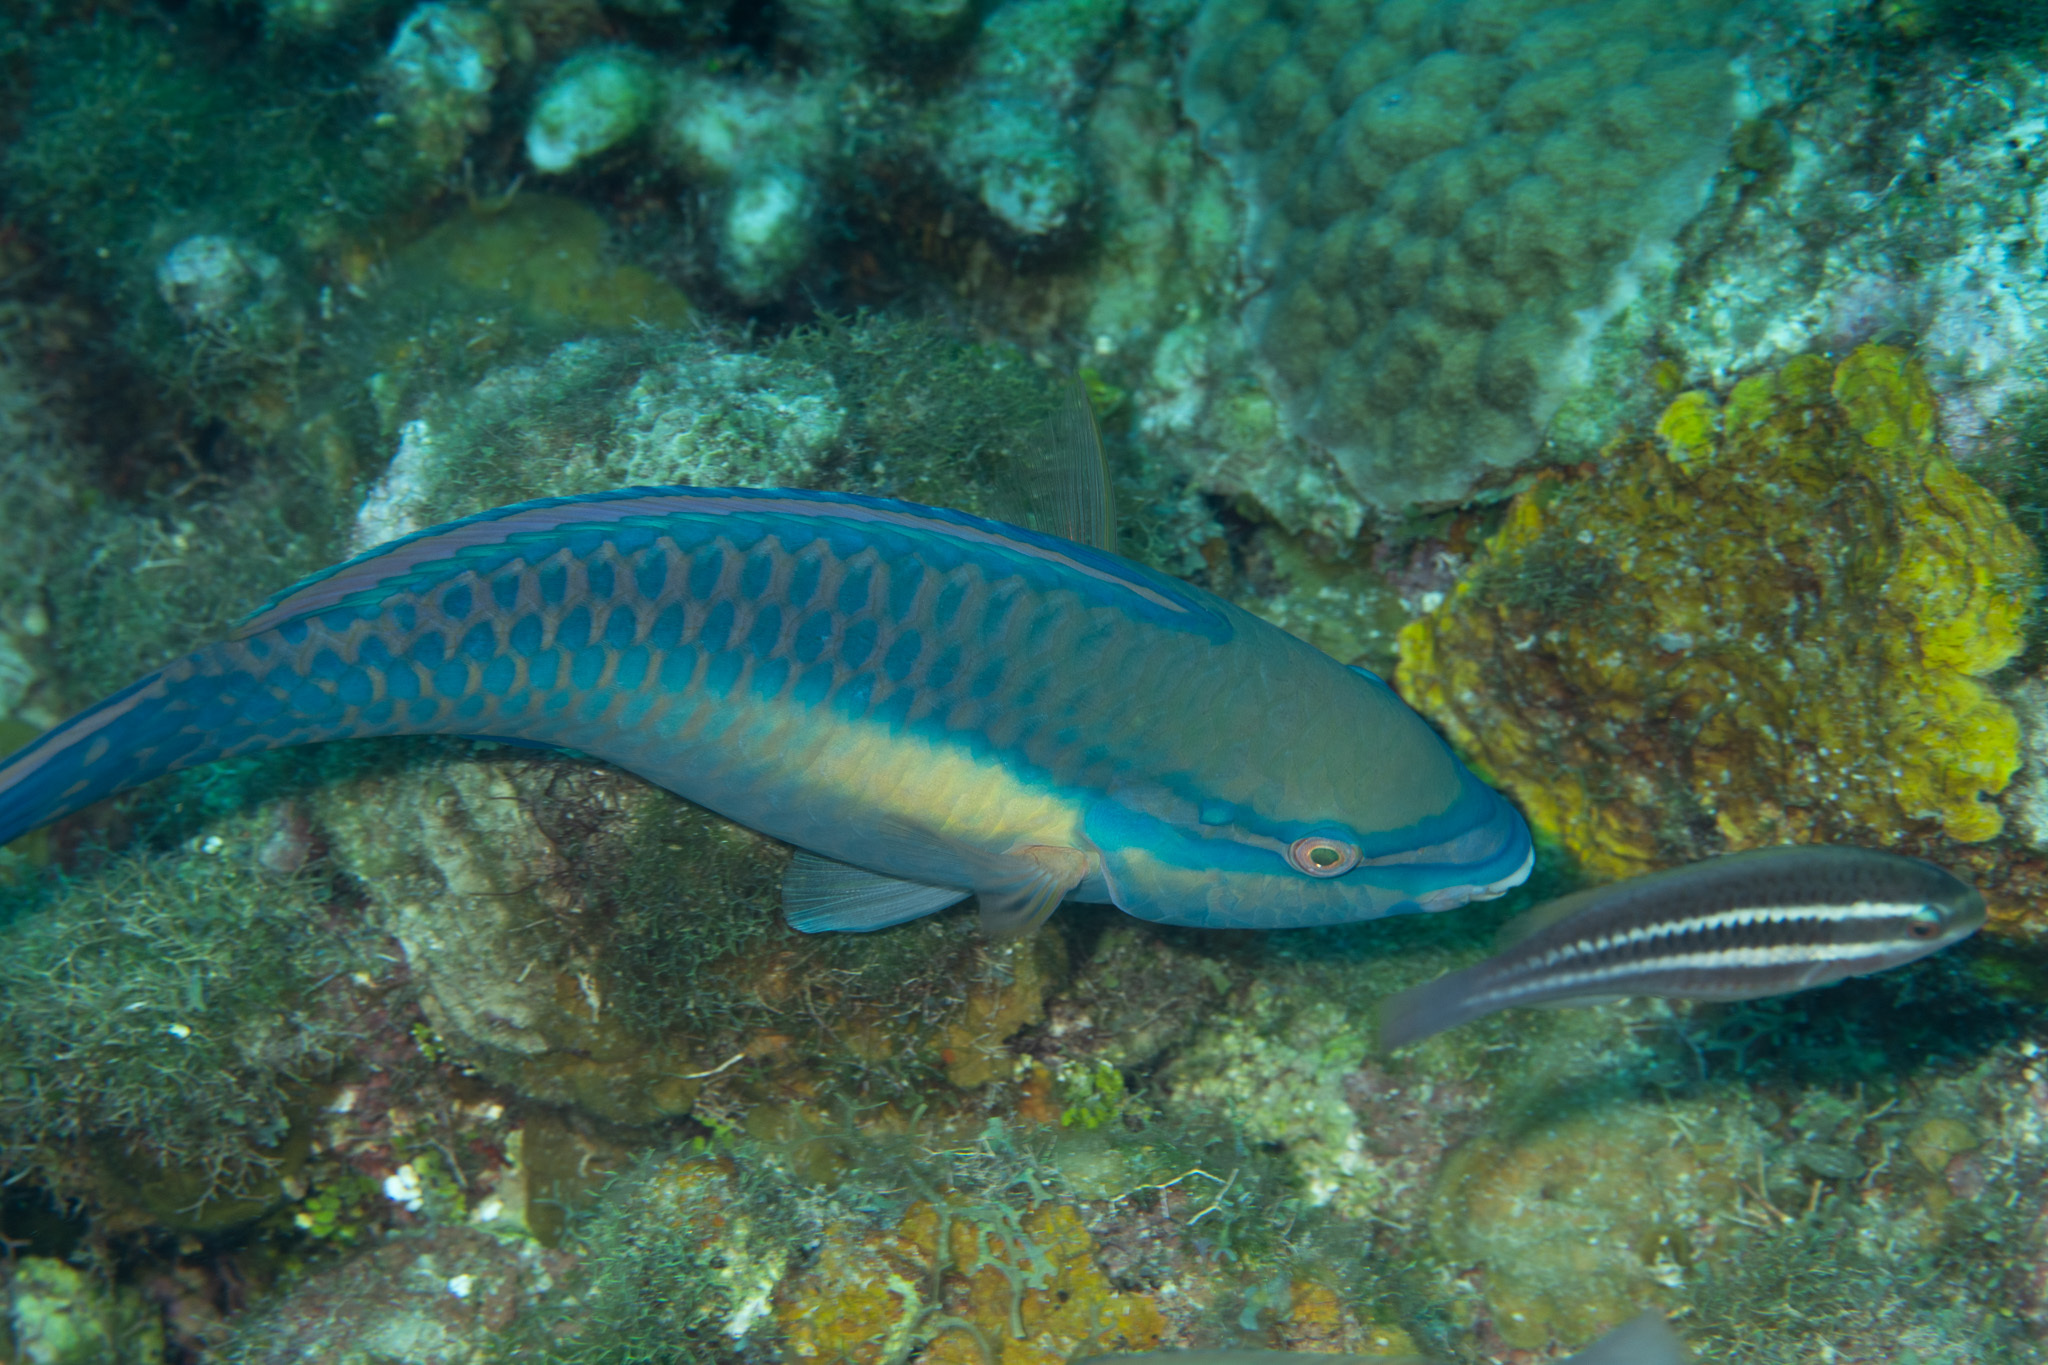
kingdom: Animalia
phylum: Chordata
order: Perciformes
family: Scaridae
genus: Scarus
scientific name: Scarus taeniopterus
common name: Princess parrotfish
